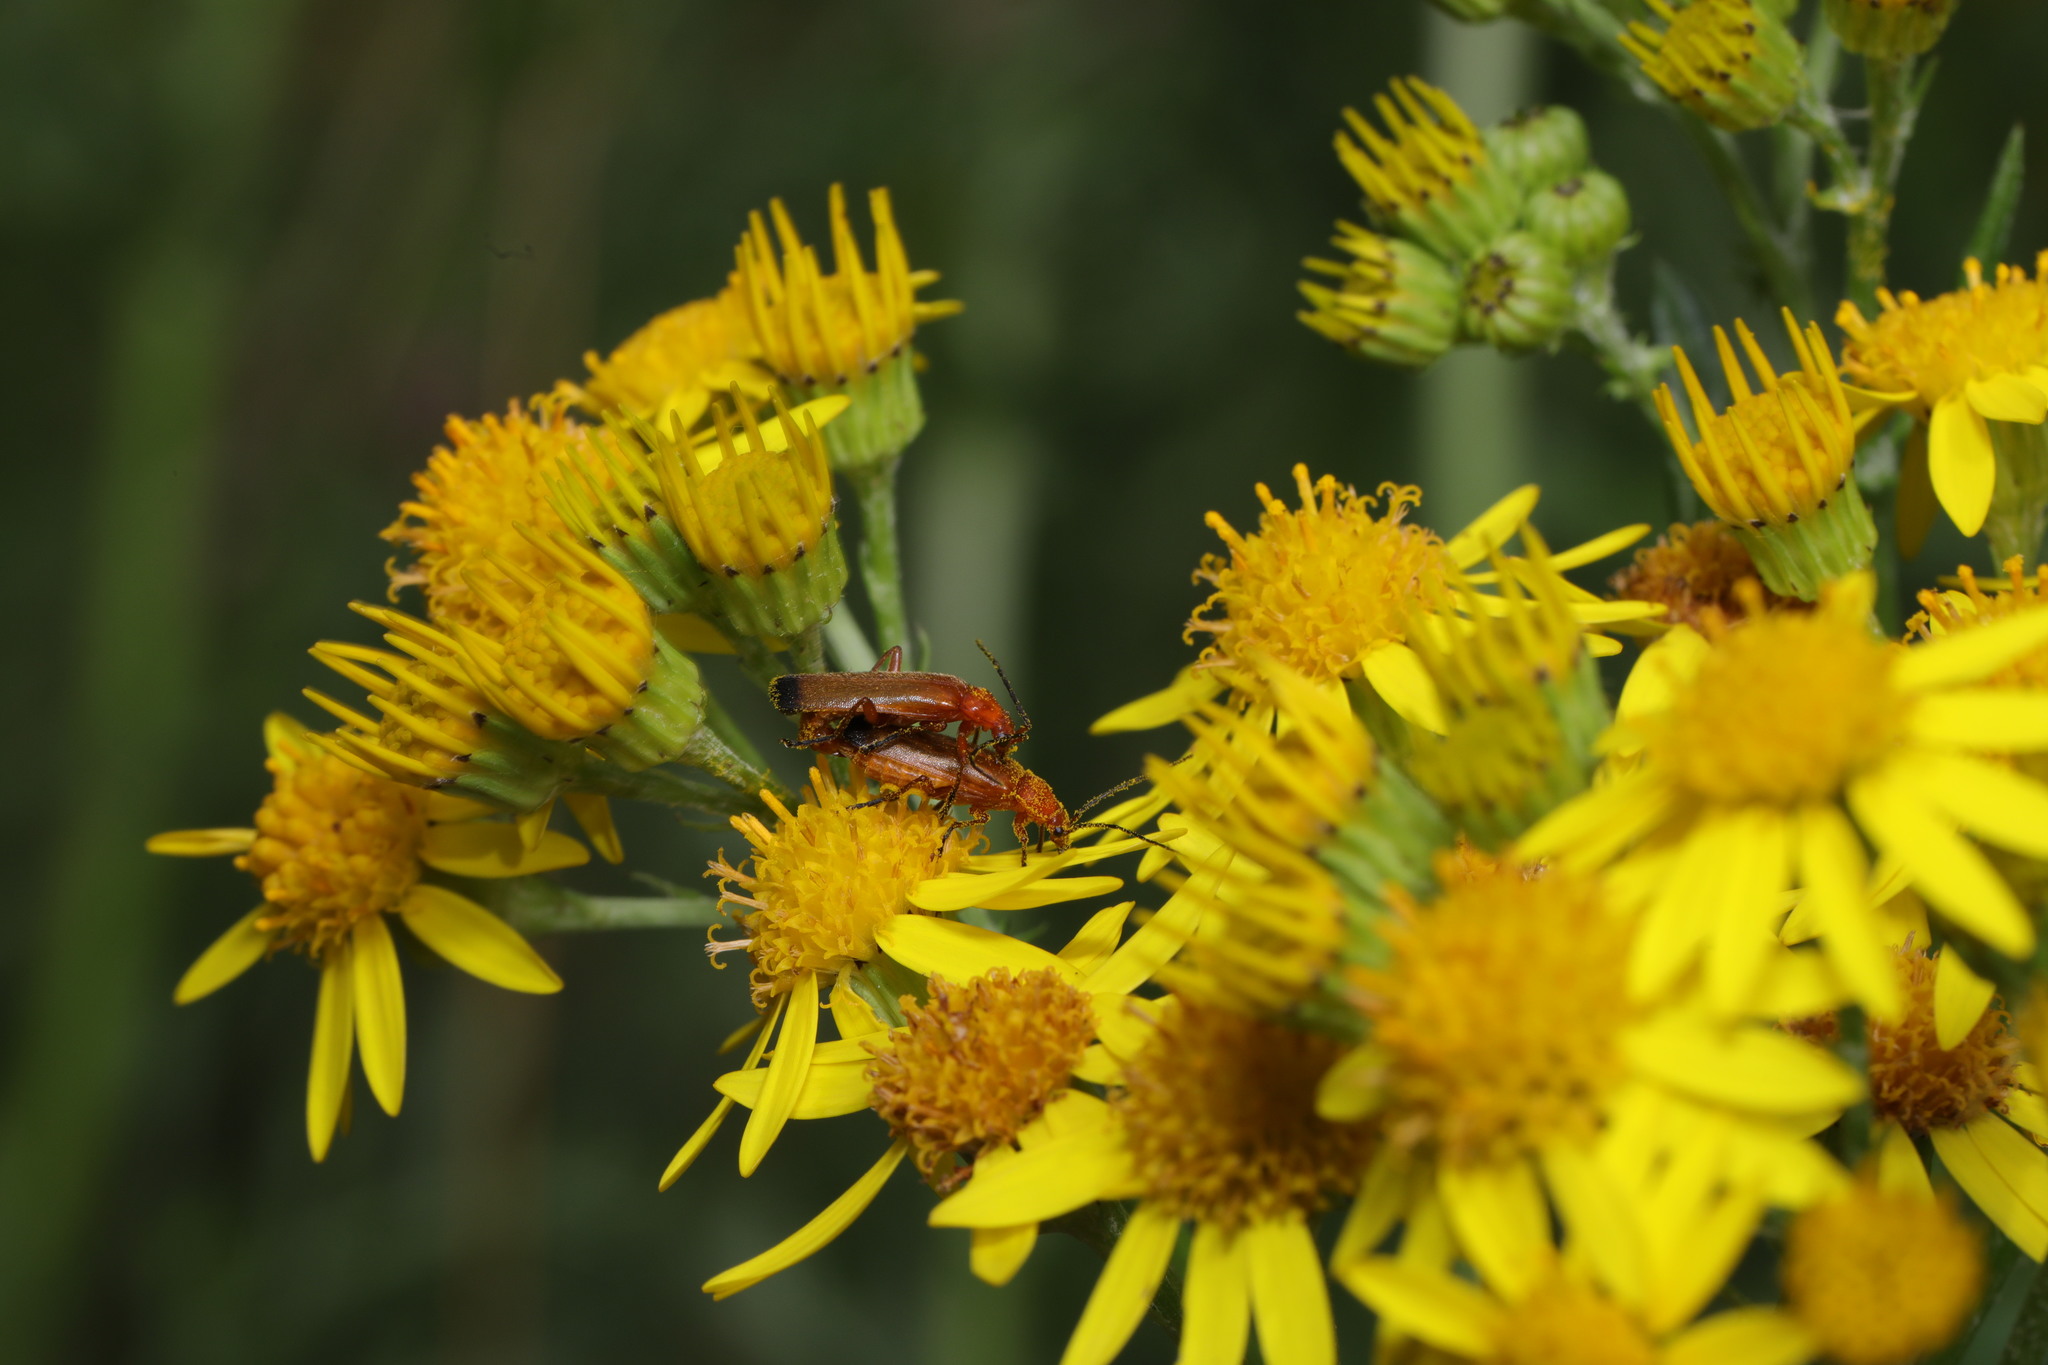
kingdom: Animalia
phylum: Arthropoda
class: Insecta
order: Coleoptera
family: Cantharidae
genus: Rhagonycha
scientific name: Rhagonycha fulva
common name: Common red soldier beetle
